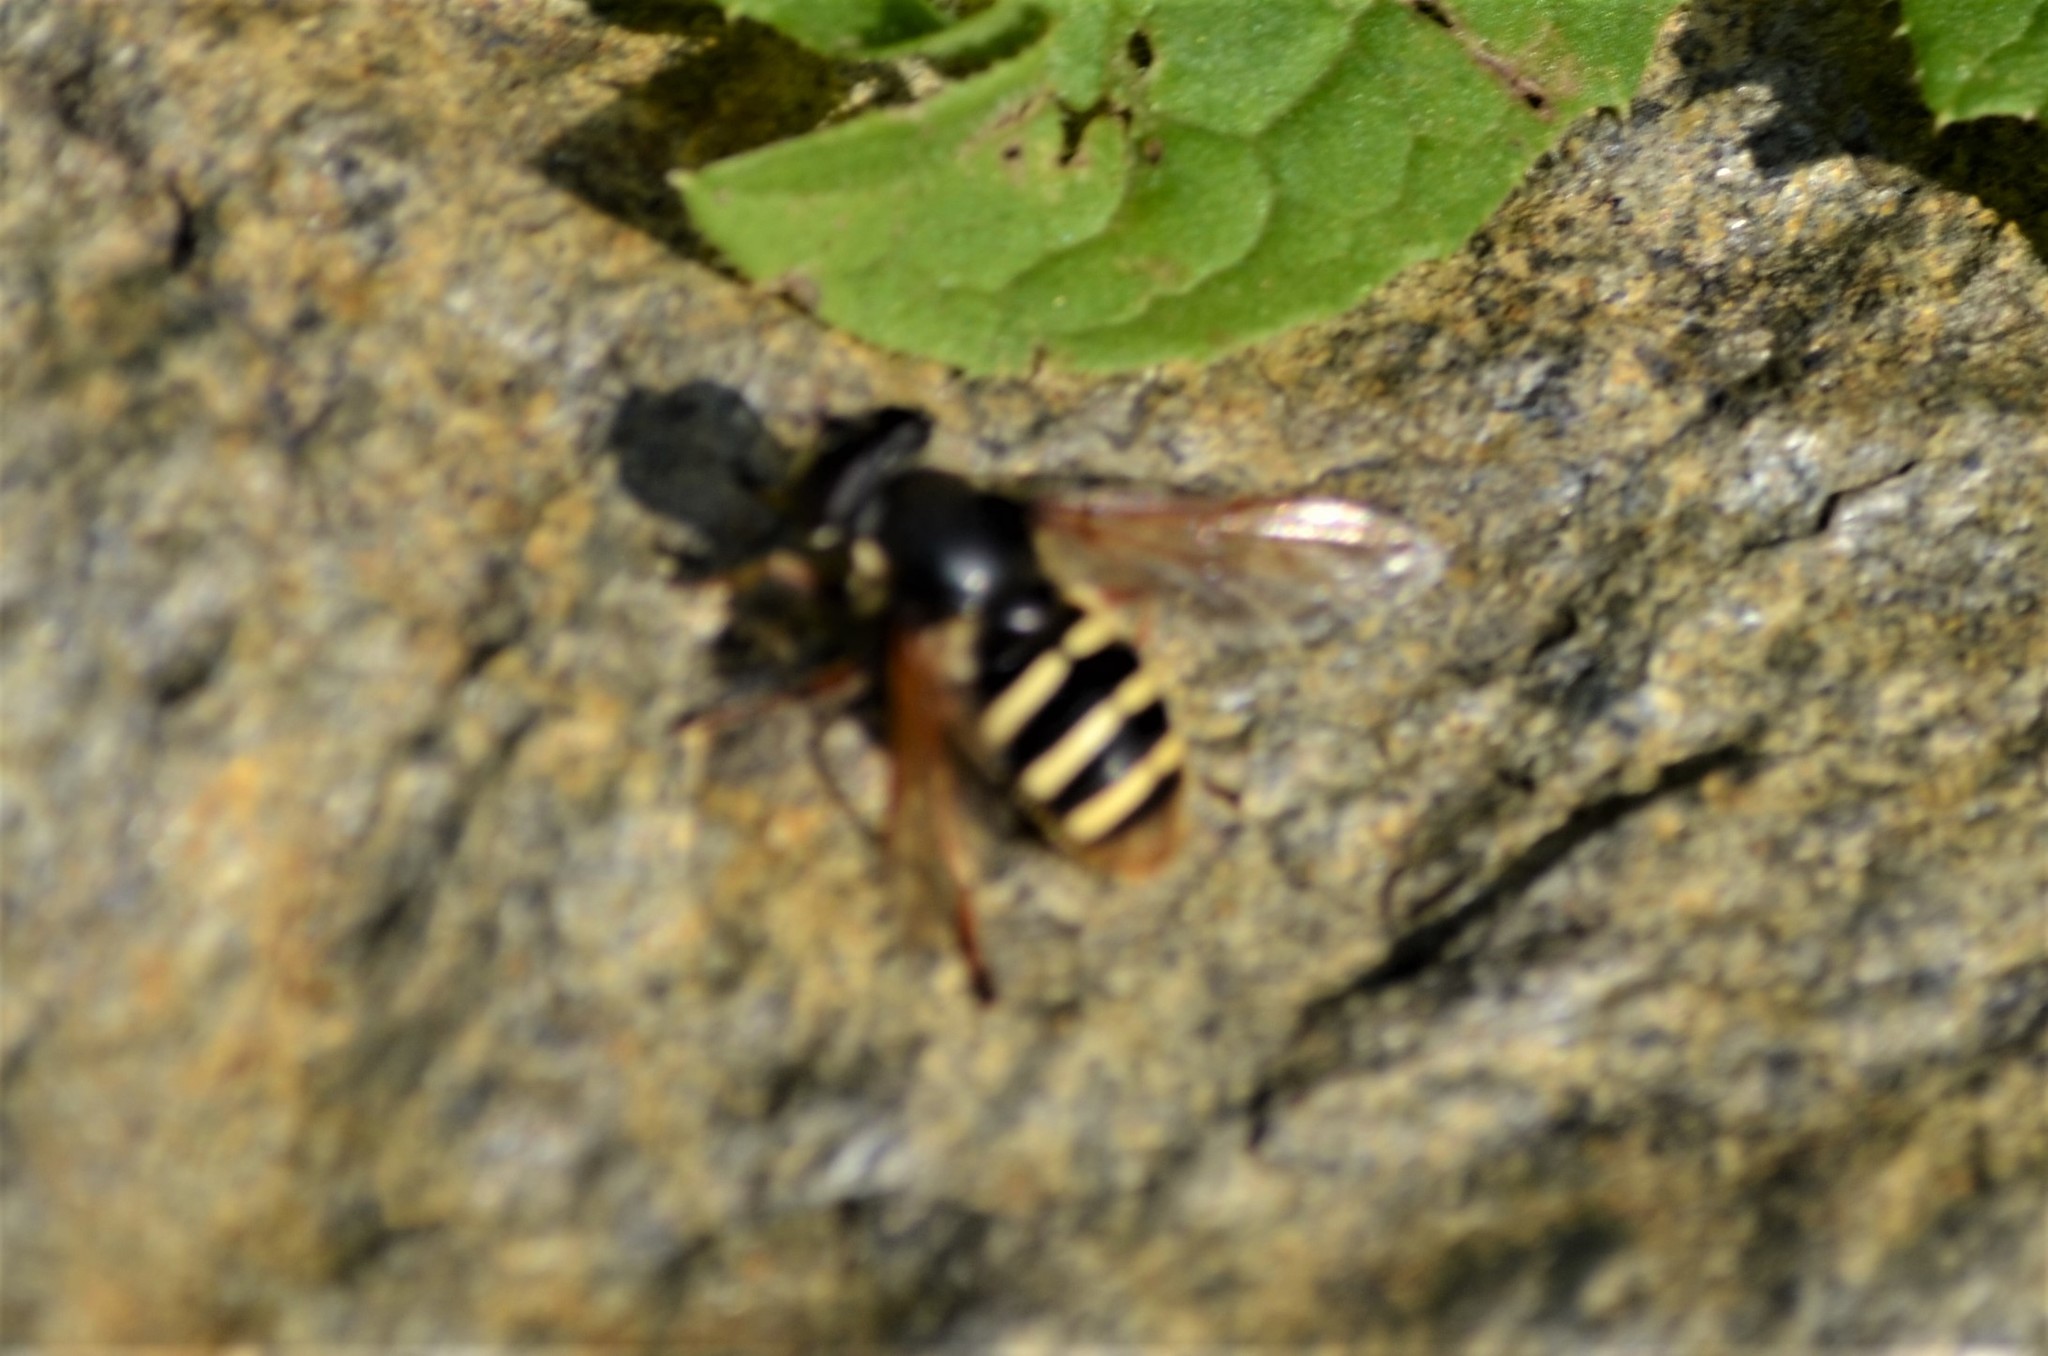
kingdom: Animalia
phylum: Arthropoda
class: Insecta
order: Diptera
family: Syrphidae
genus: Sericomyia
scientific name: Sericomyia silentis
